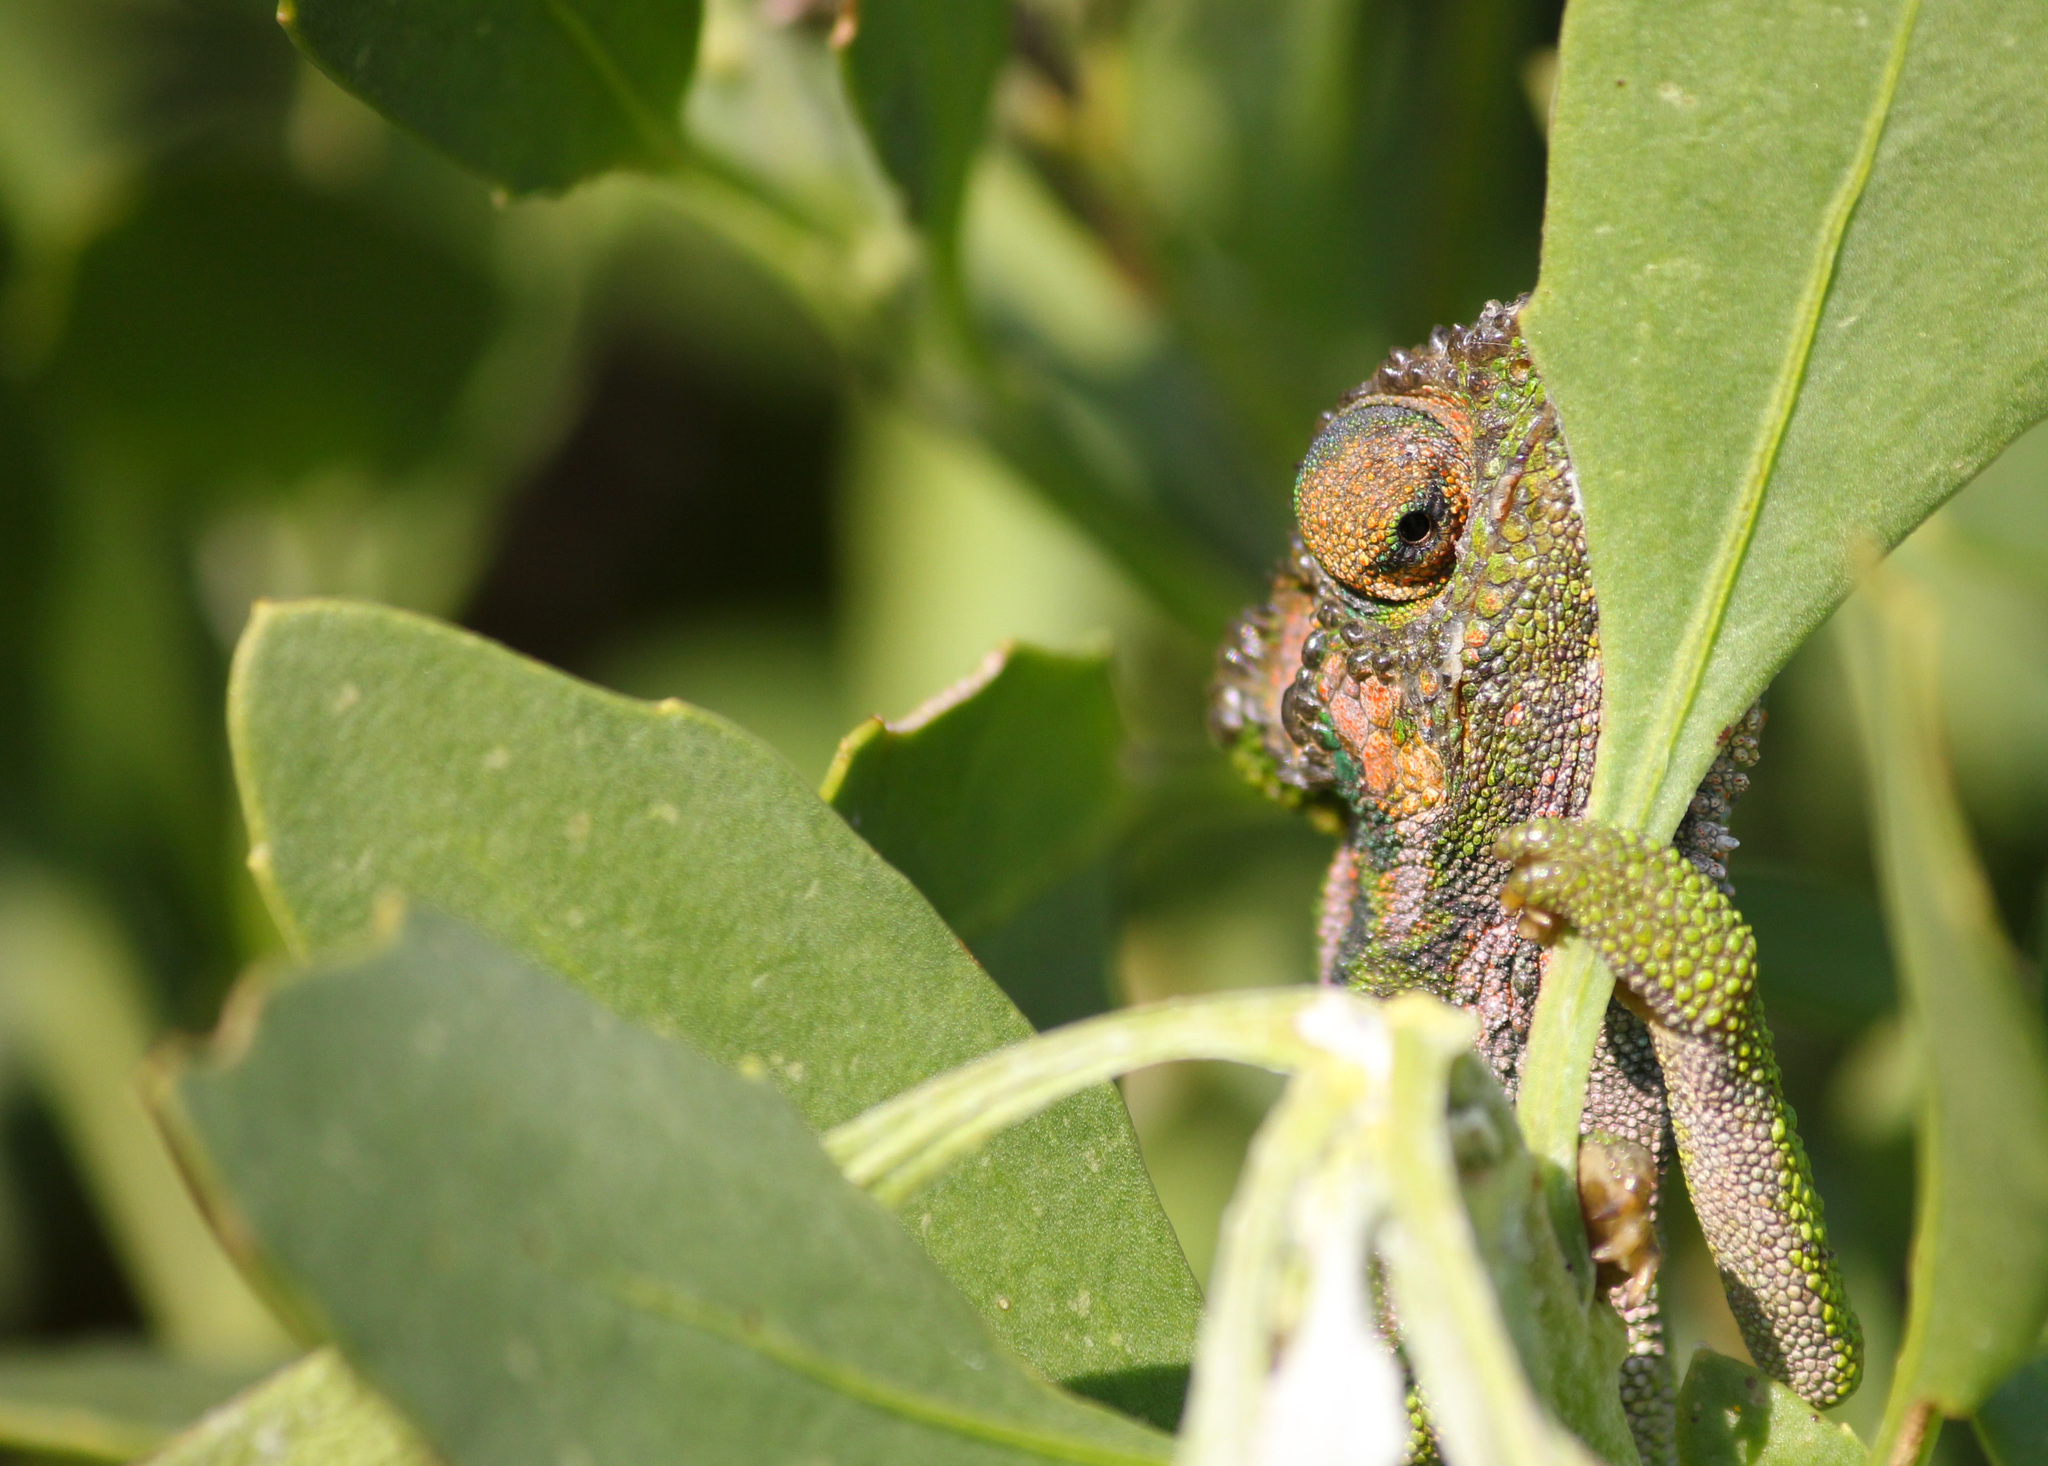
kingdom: Animalia
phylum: Chordata
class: Squamata
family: Chamaeleonidae
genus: Bradypodion
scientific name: Bradypodion pumilum
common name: Cape dwarf chameleon
